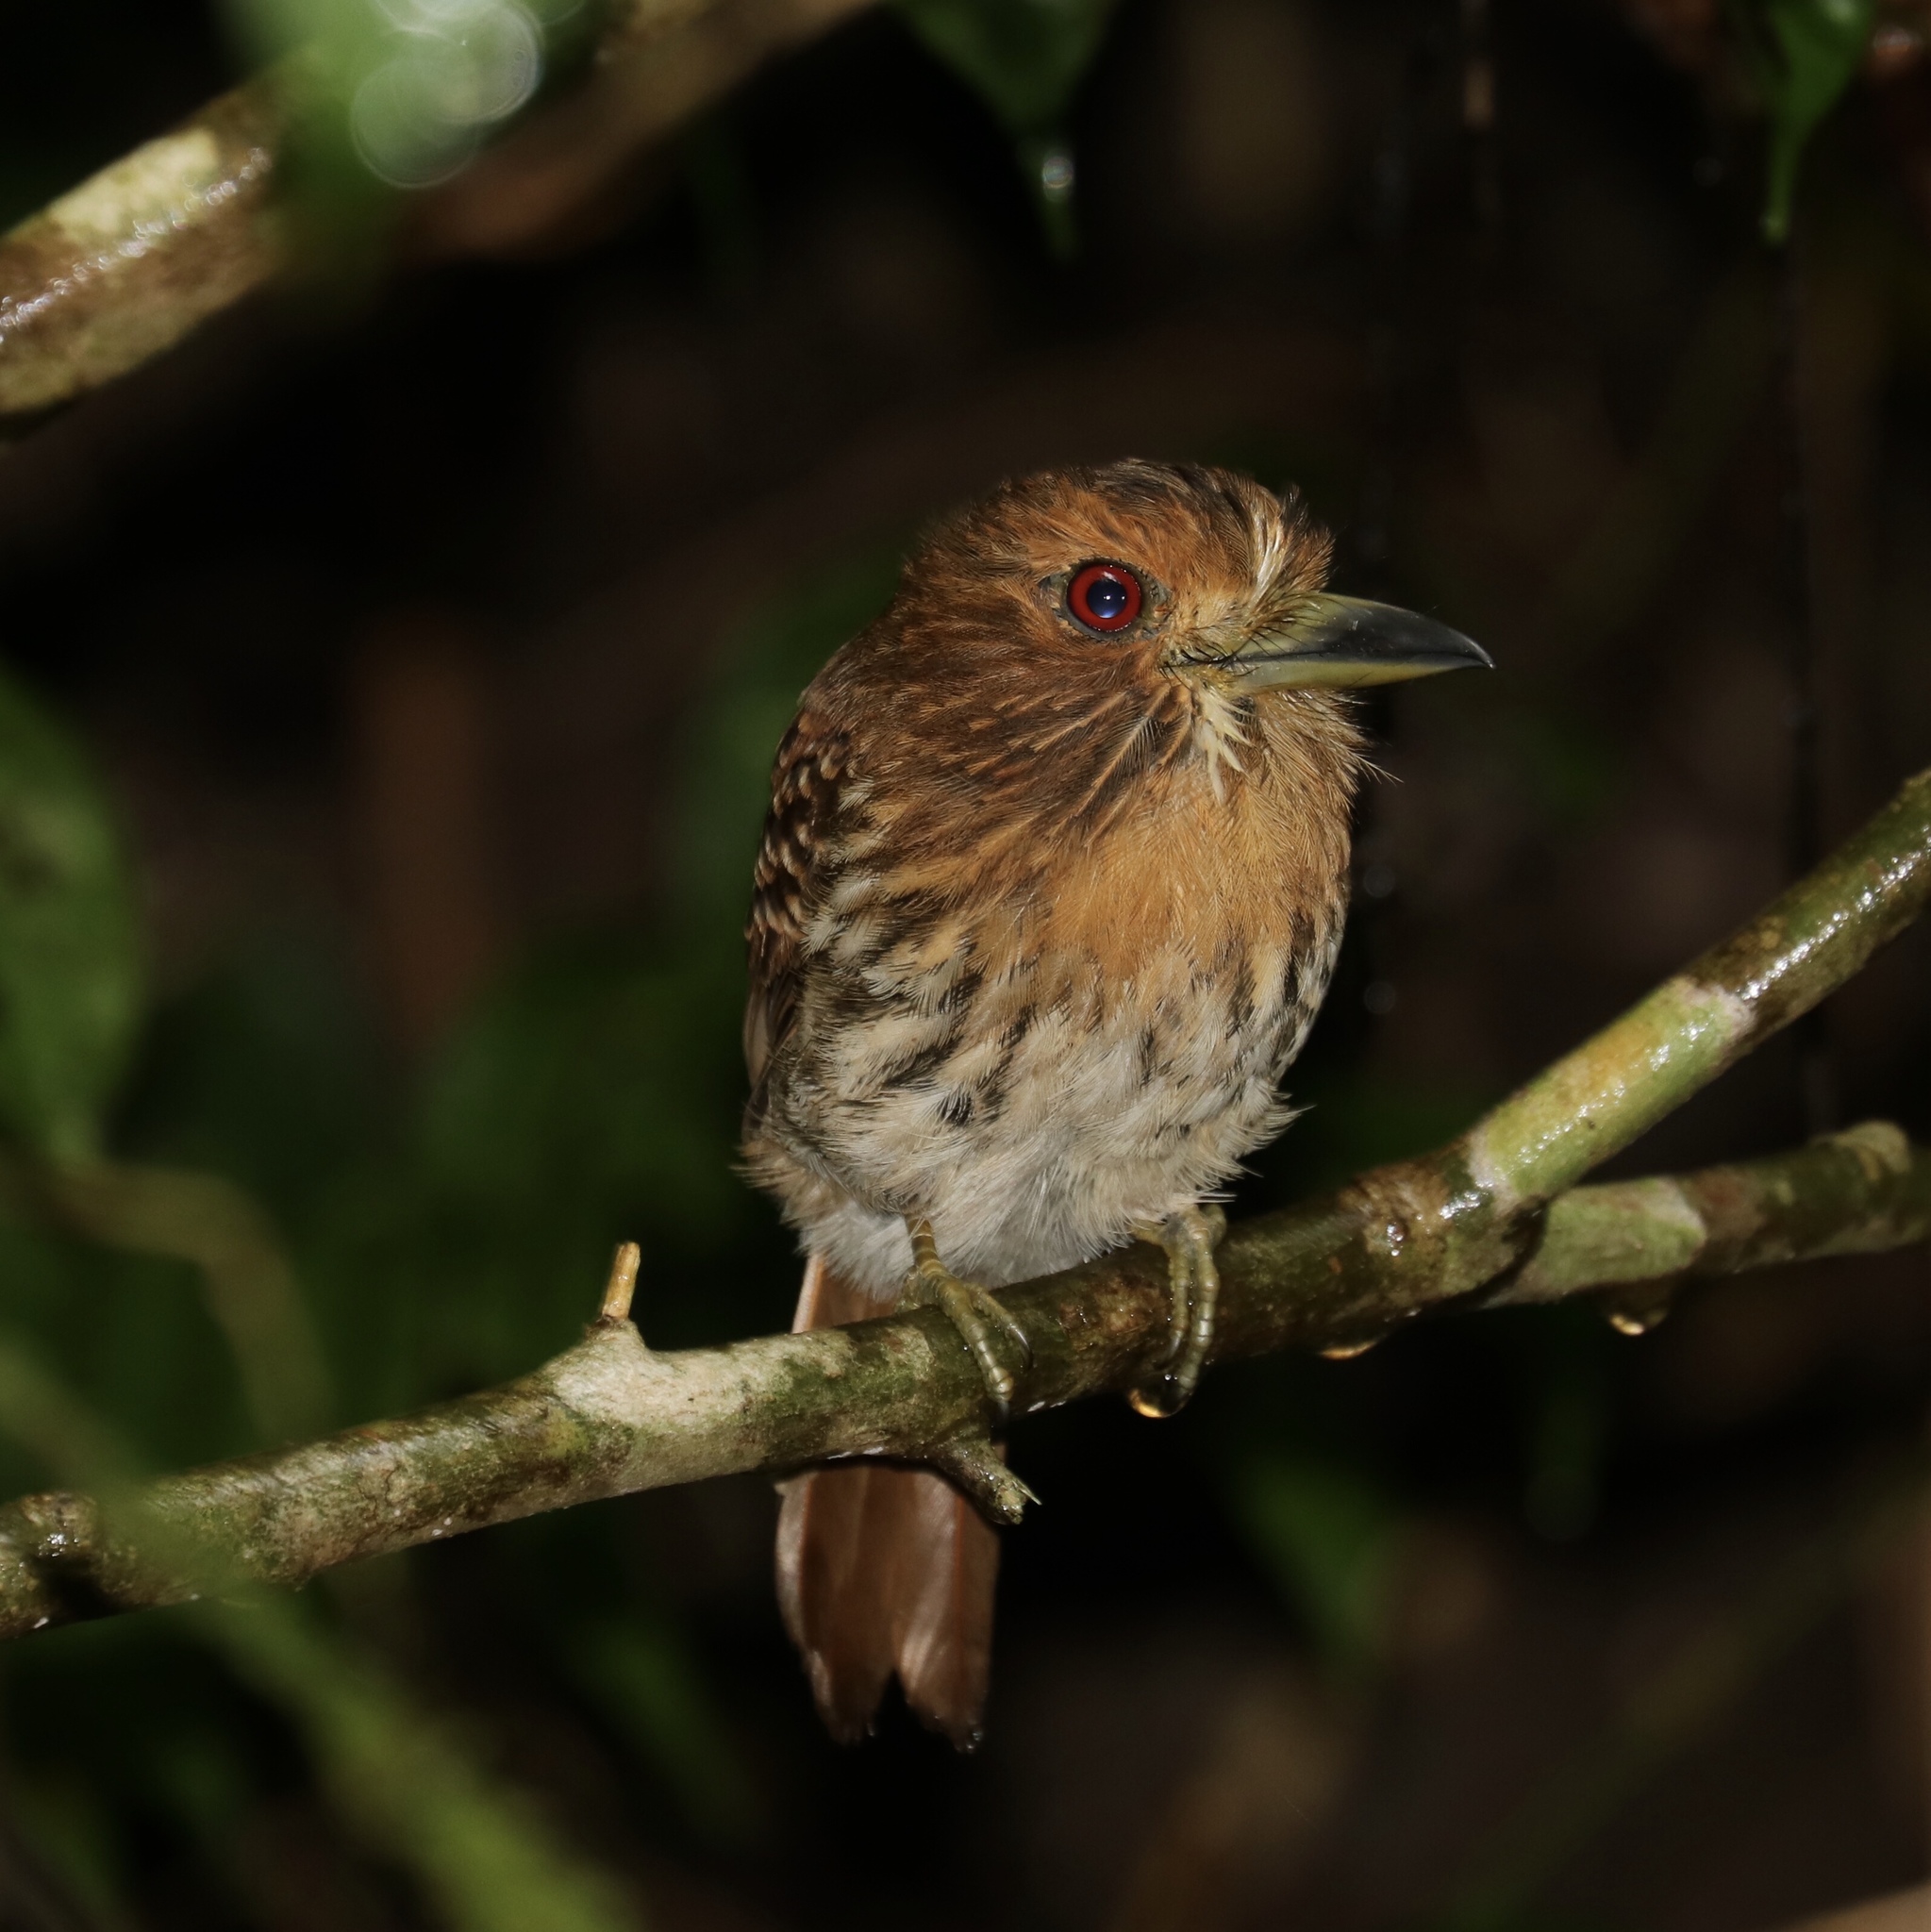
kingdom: Animalia
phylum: Chordata
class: Aves
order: Piciformes
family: Bucconidae
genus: Malacoptila
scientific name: Malacoptila panamensis
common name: White-whiskered puffbird
